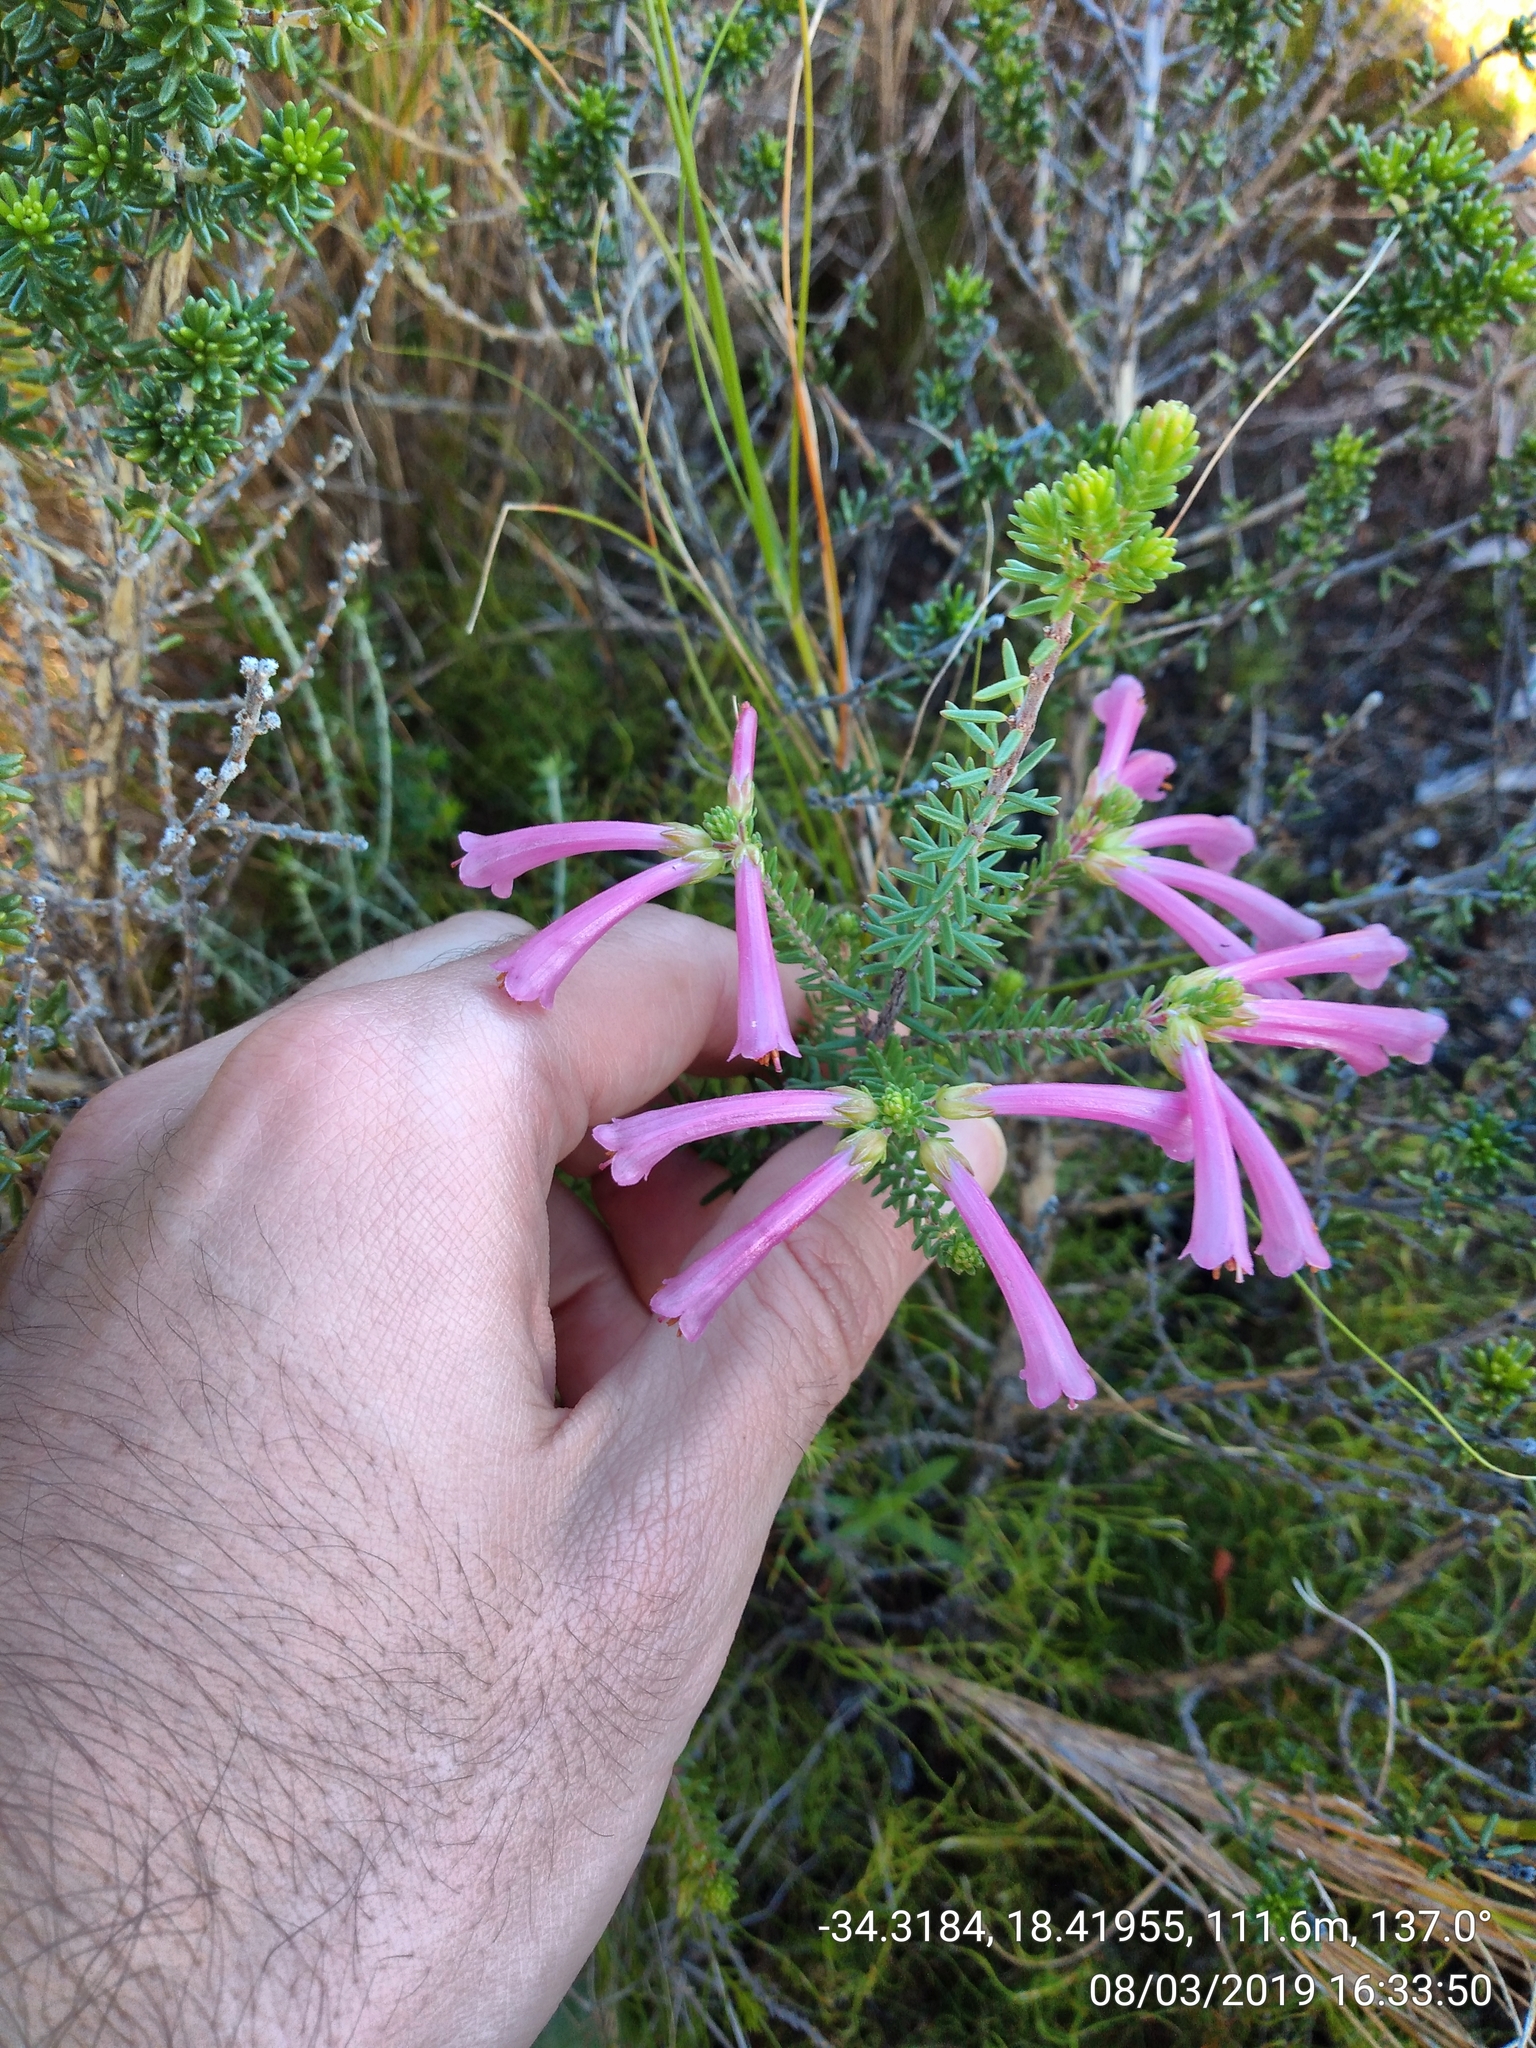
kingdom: Plantae
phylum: Tracheophyta
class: Magnoliopsida
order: Ericales
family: Ericaceae
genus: Erica
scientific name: Erica abietina
